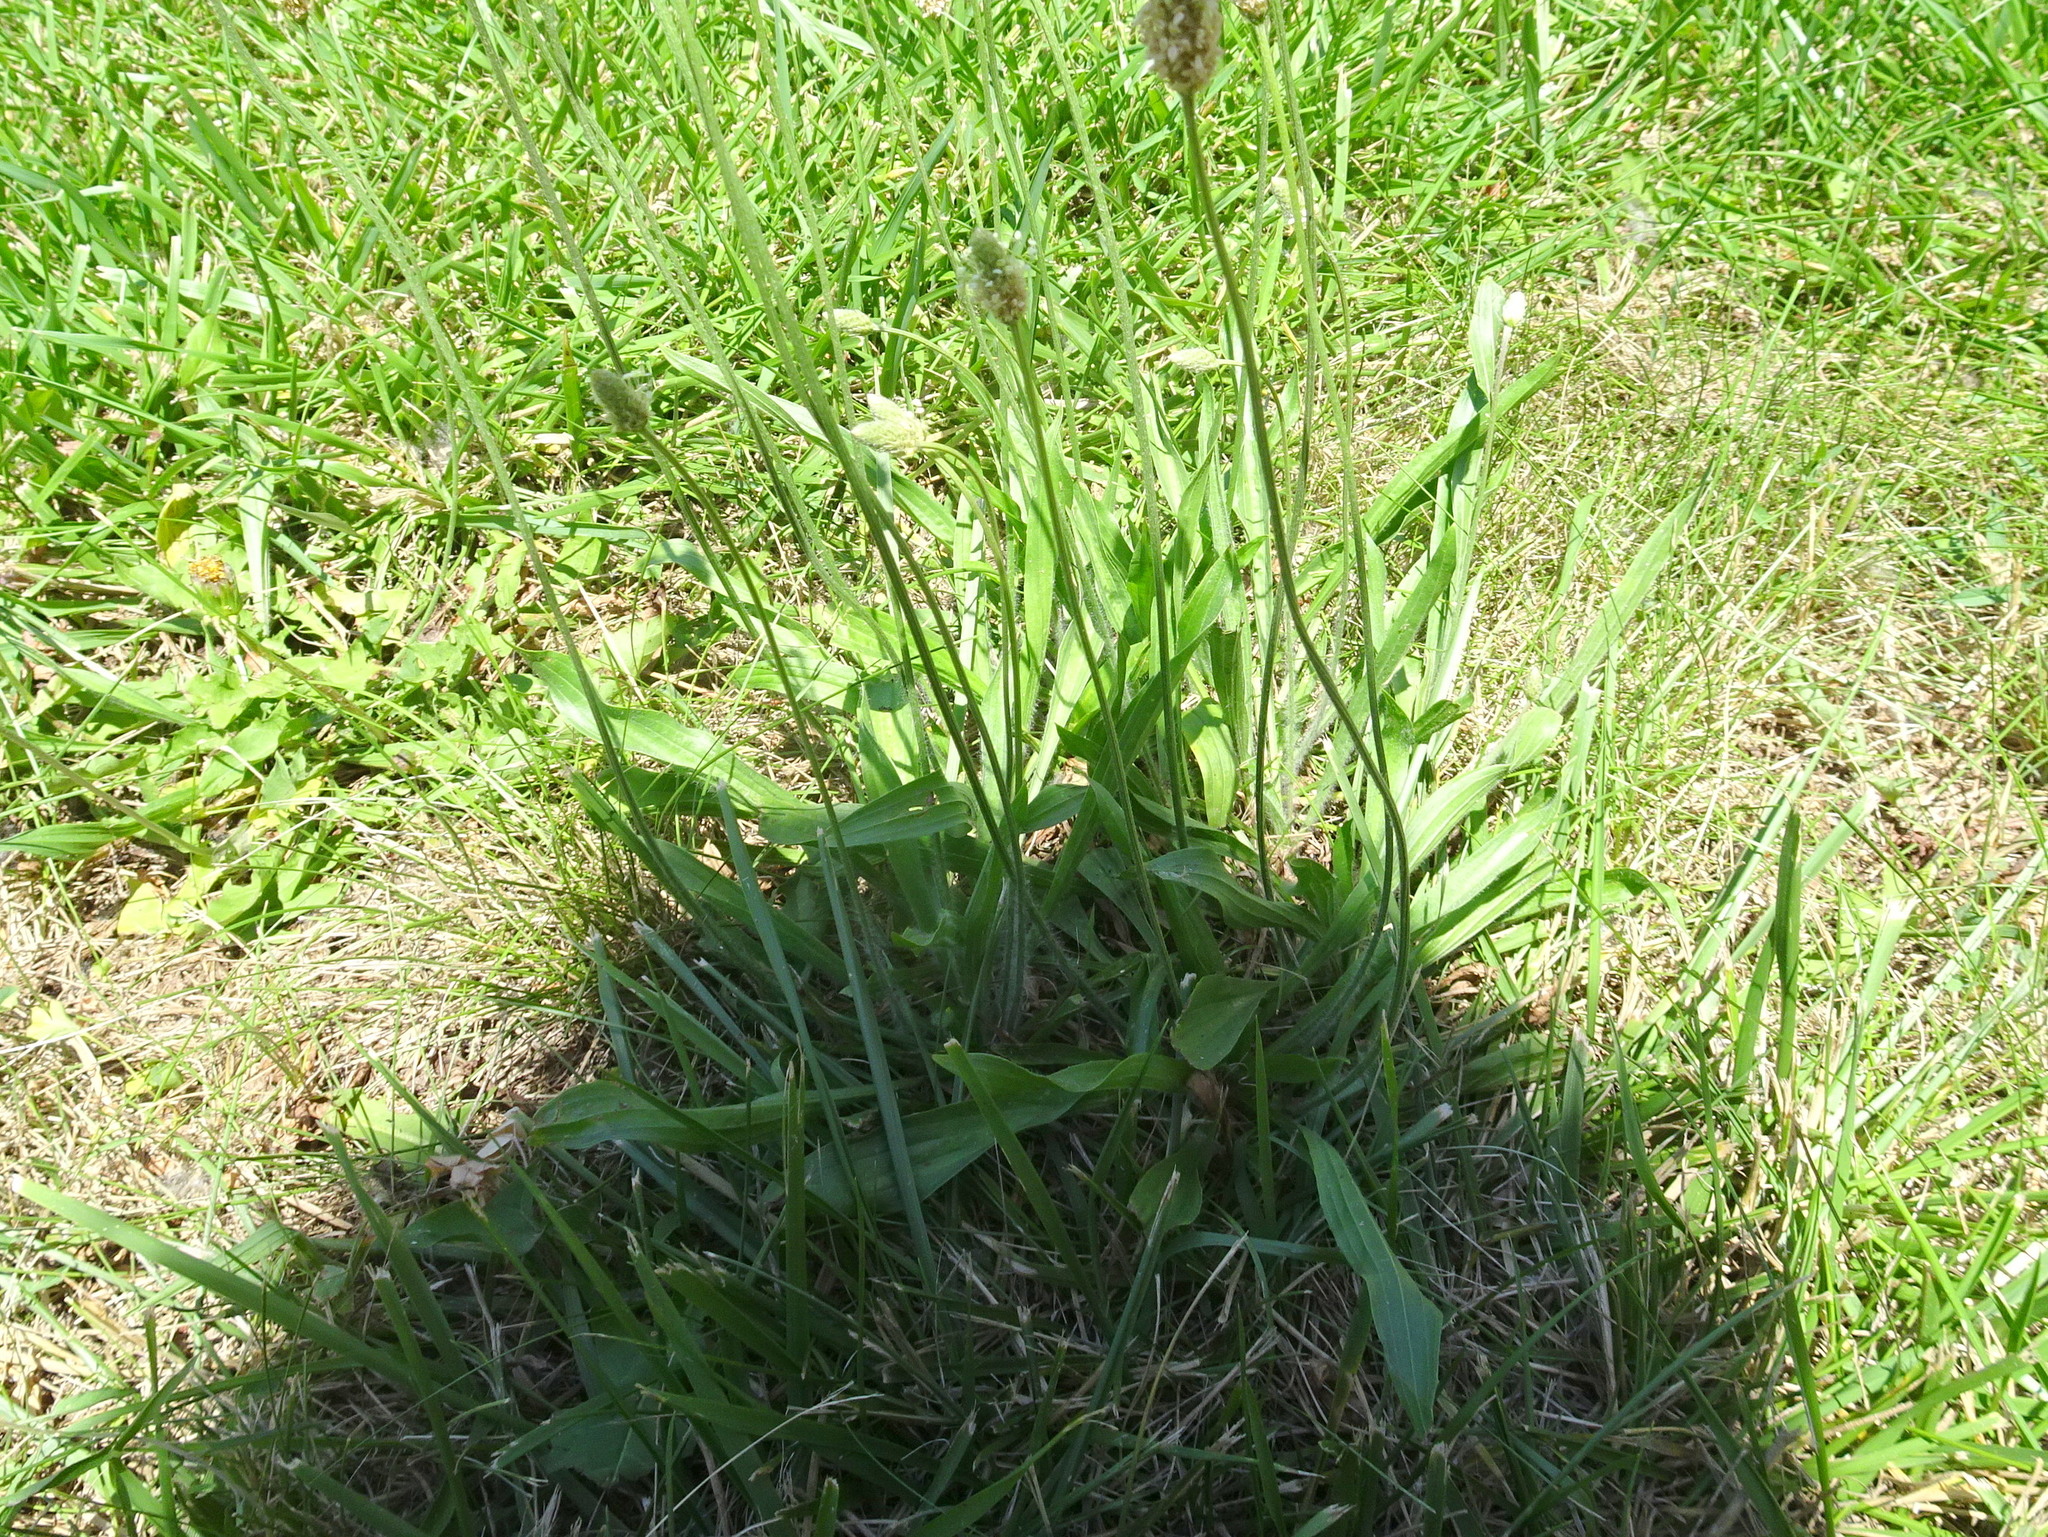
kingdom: Plantae
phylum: Tracheophyta
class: Magnoliopsida
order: Lamiales
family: Plantaginaceae
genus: Plantago
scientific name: Plantago lanceolata
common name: Ribwort plantain
